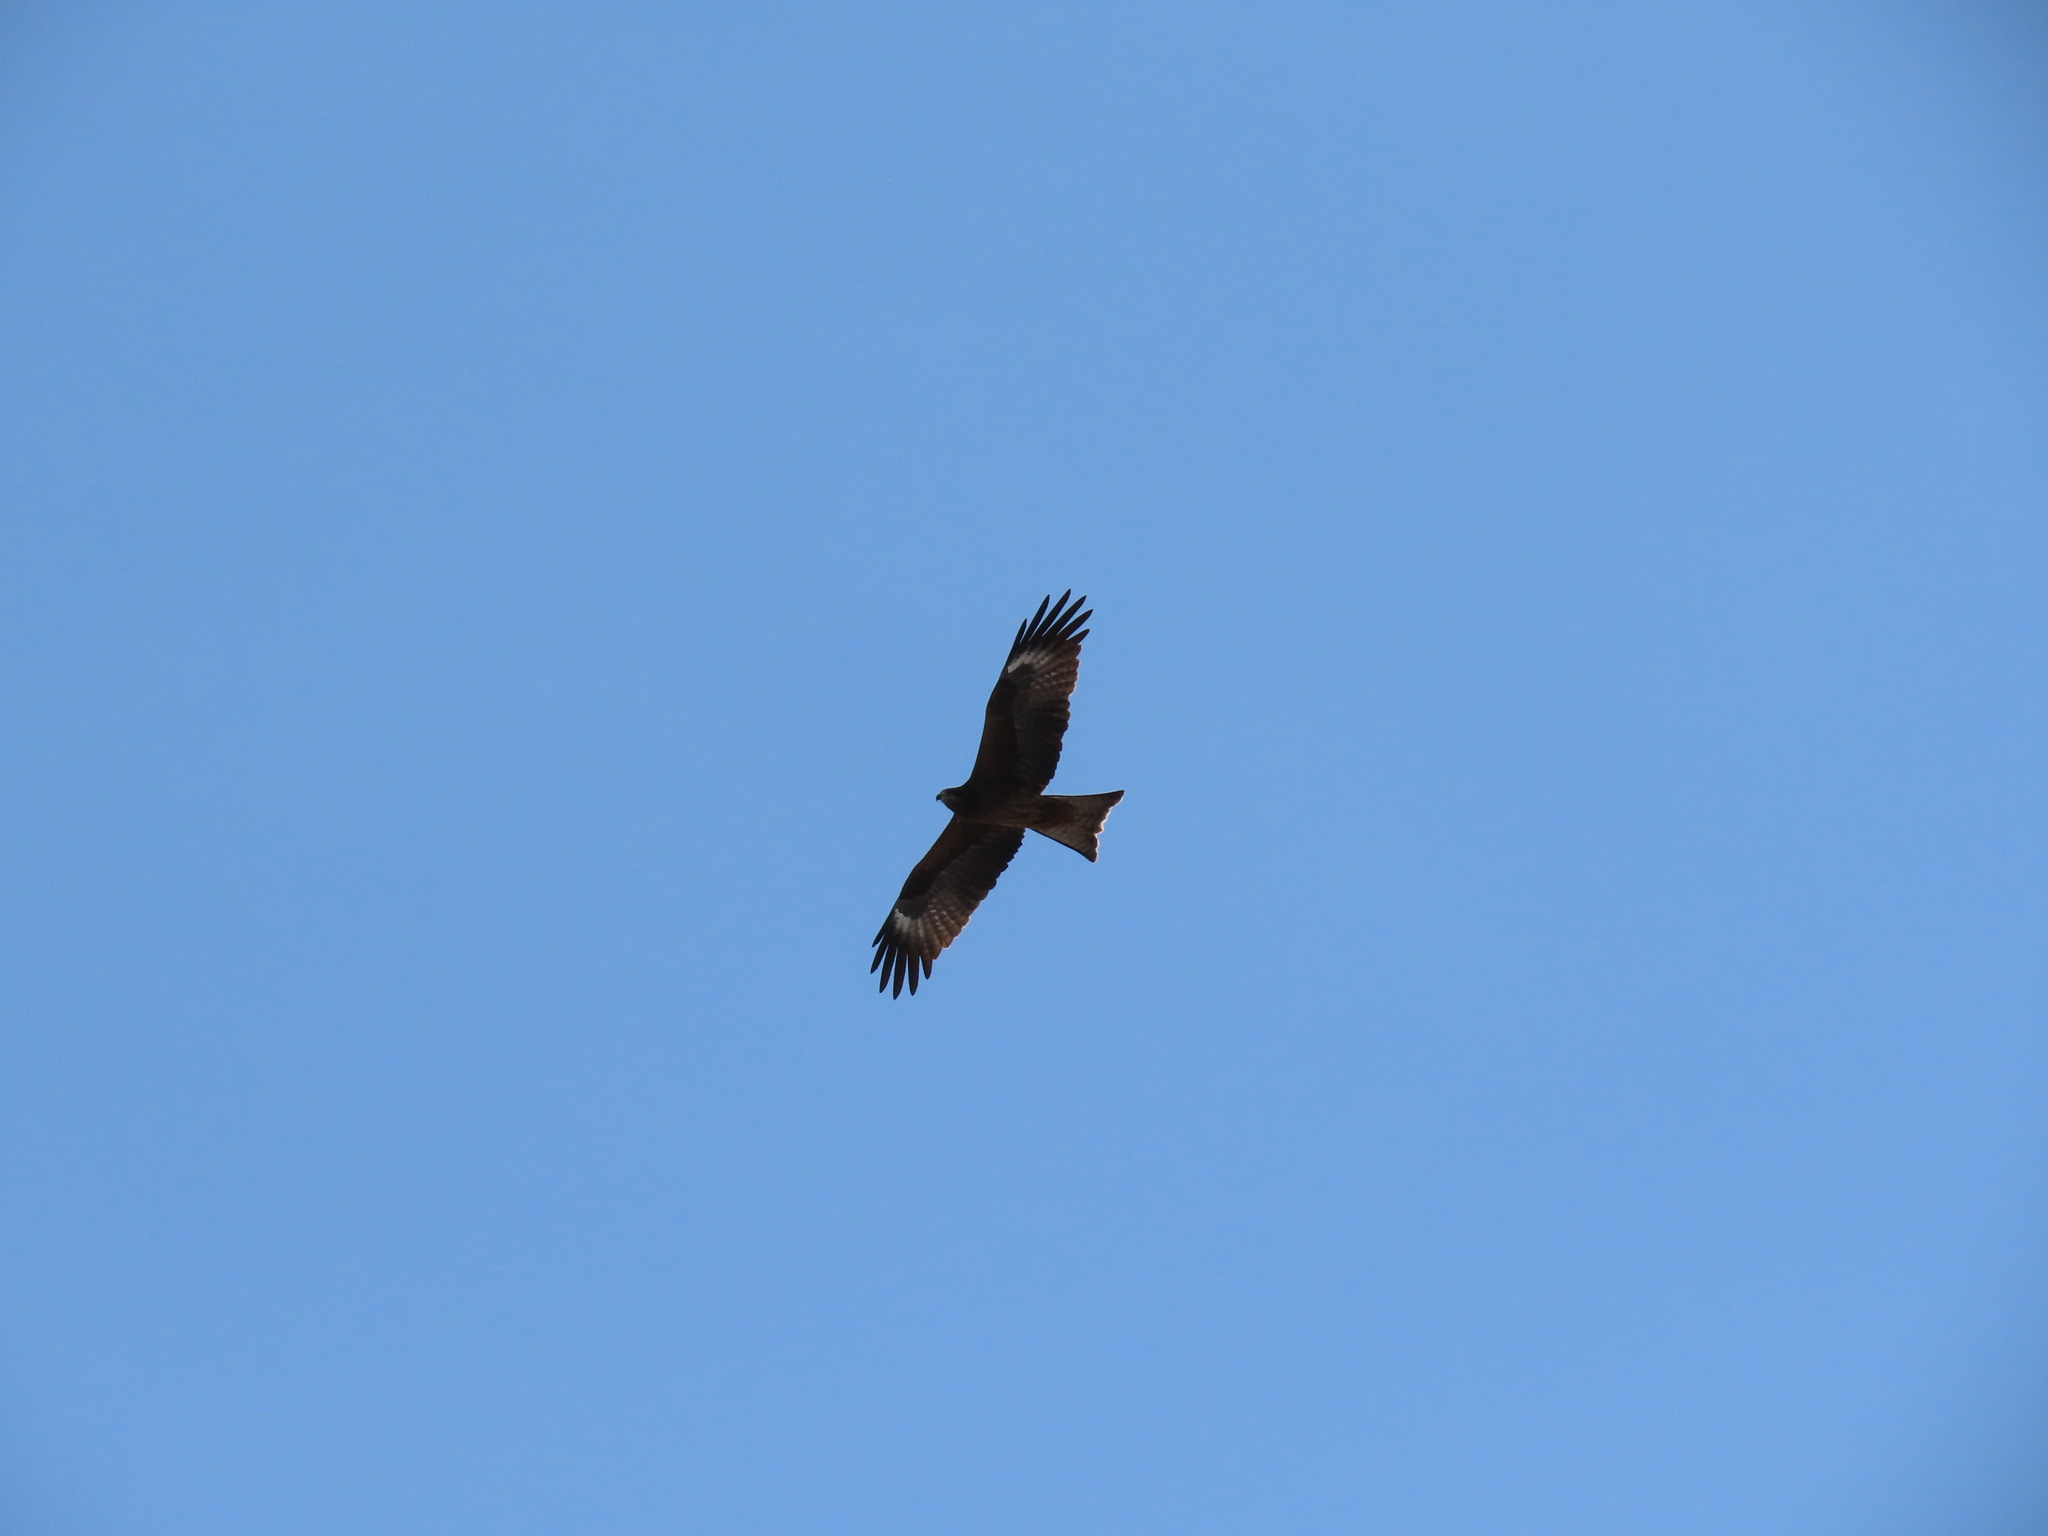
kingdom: Animalia
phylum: Chordata
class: Aves
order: Accipitriformes
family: Accipitridae
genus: Milvus
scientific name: Milvus migrans
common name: Black kite
